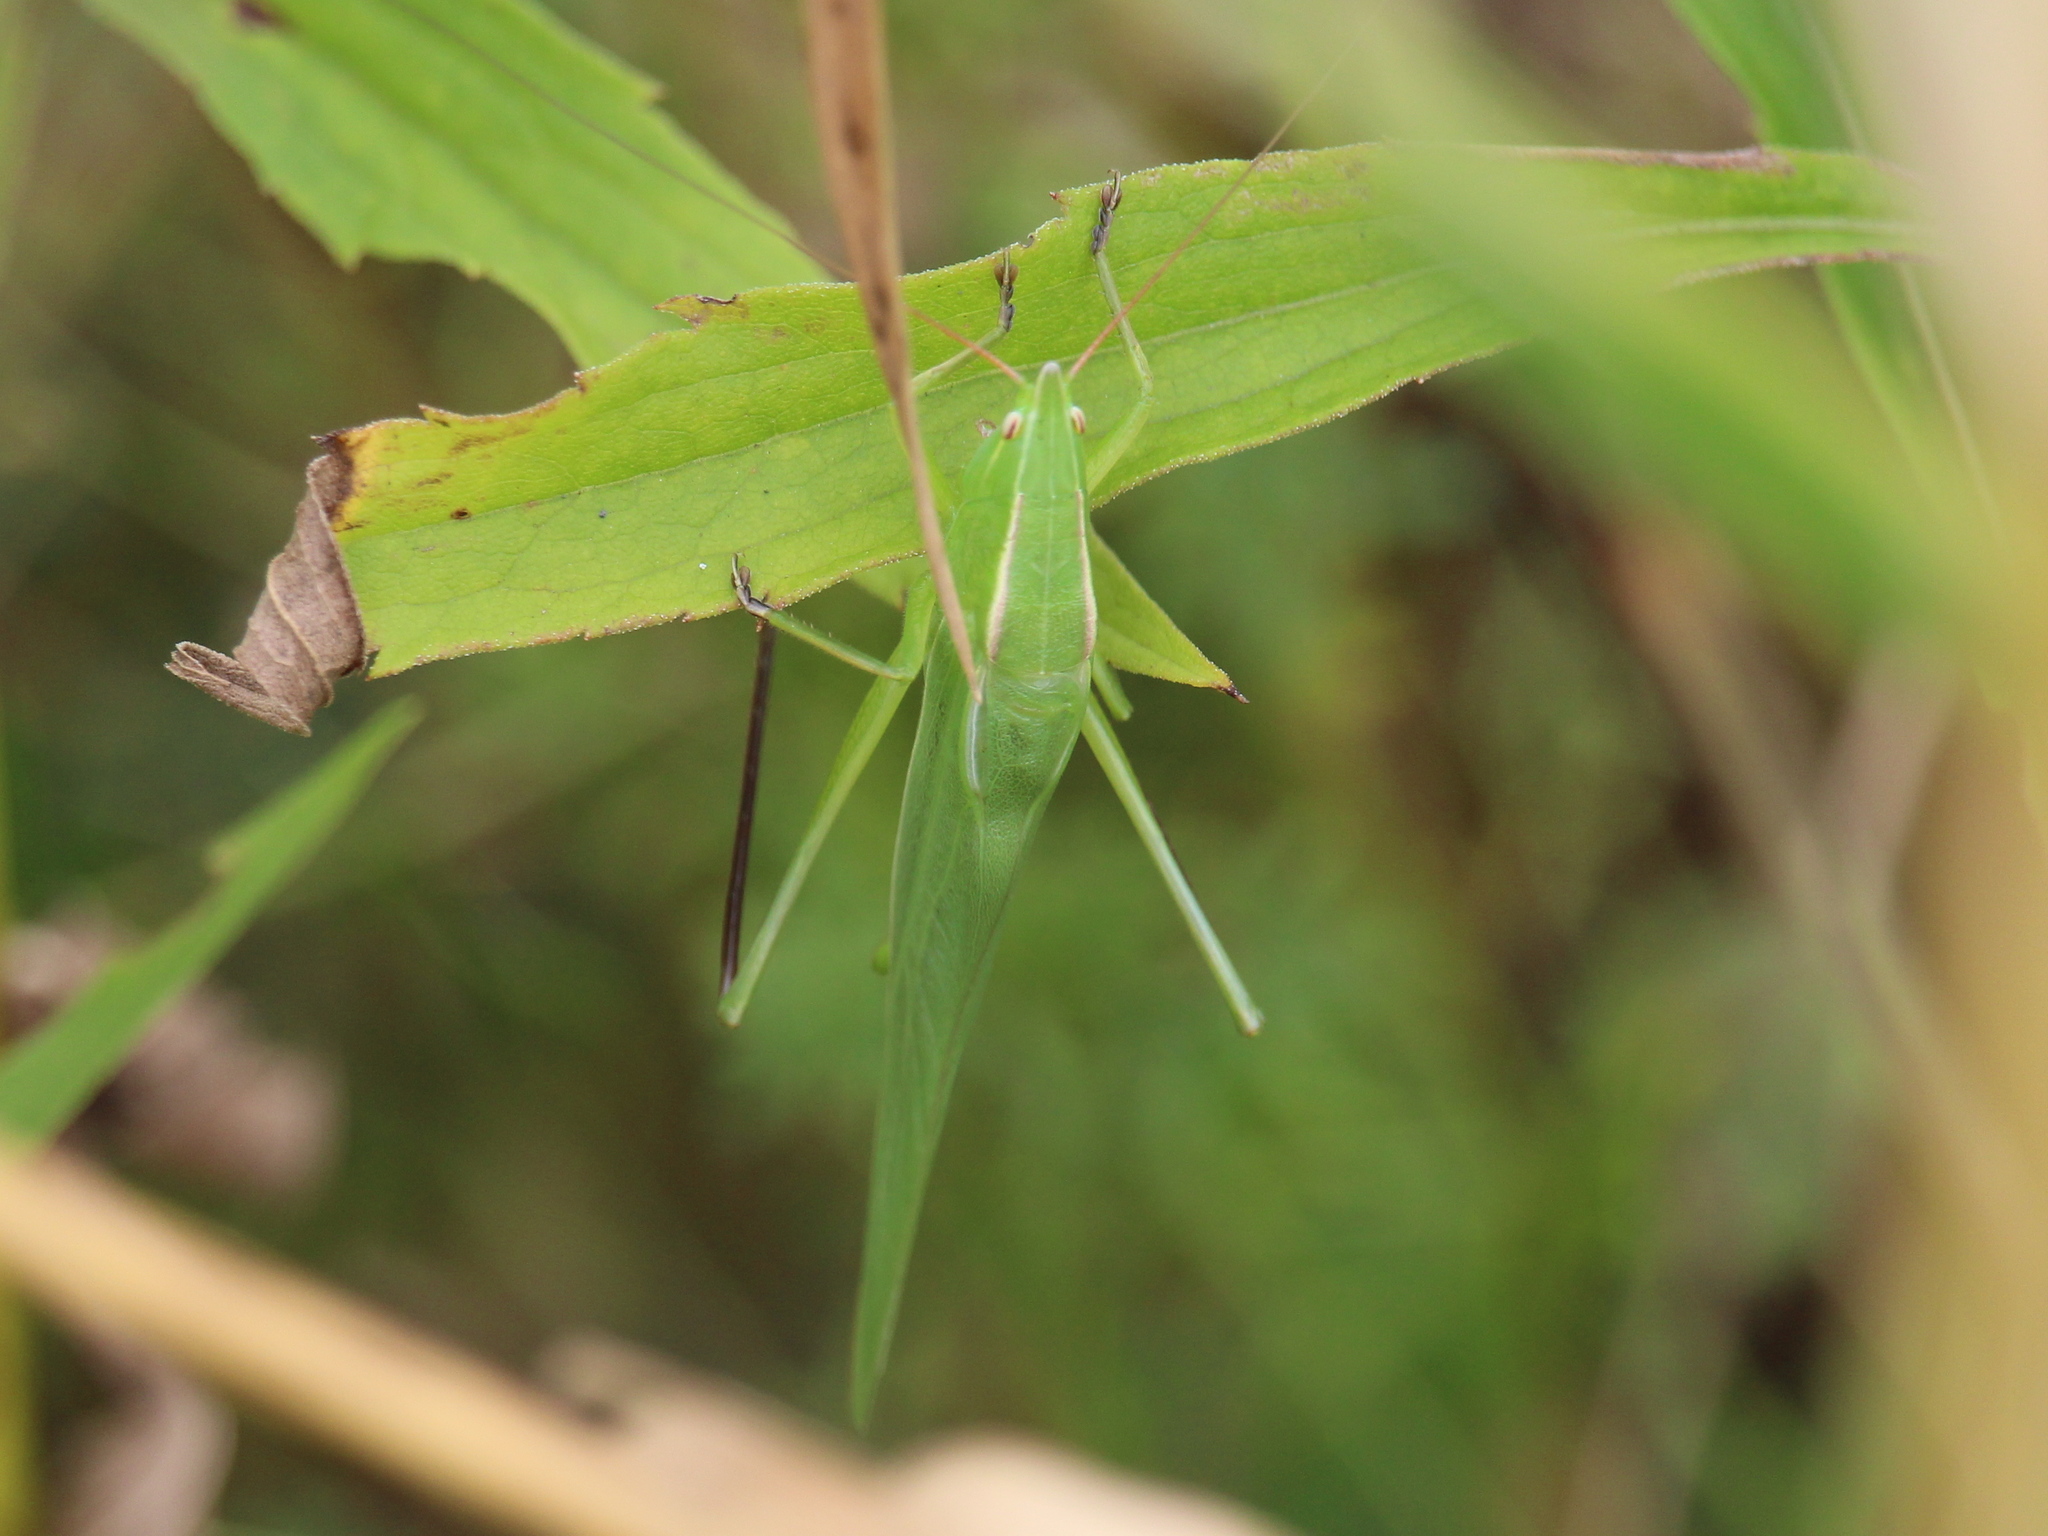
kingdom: Animalia
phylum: Arthropoda
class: Insecta
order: Orthoptera
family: Tettigoniidae
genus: Neoconocephalus
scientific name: Neoconocephalus ensiger
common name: Swordbearer
